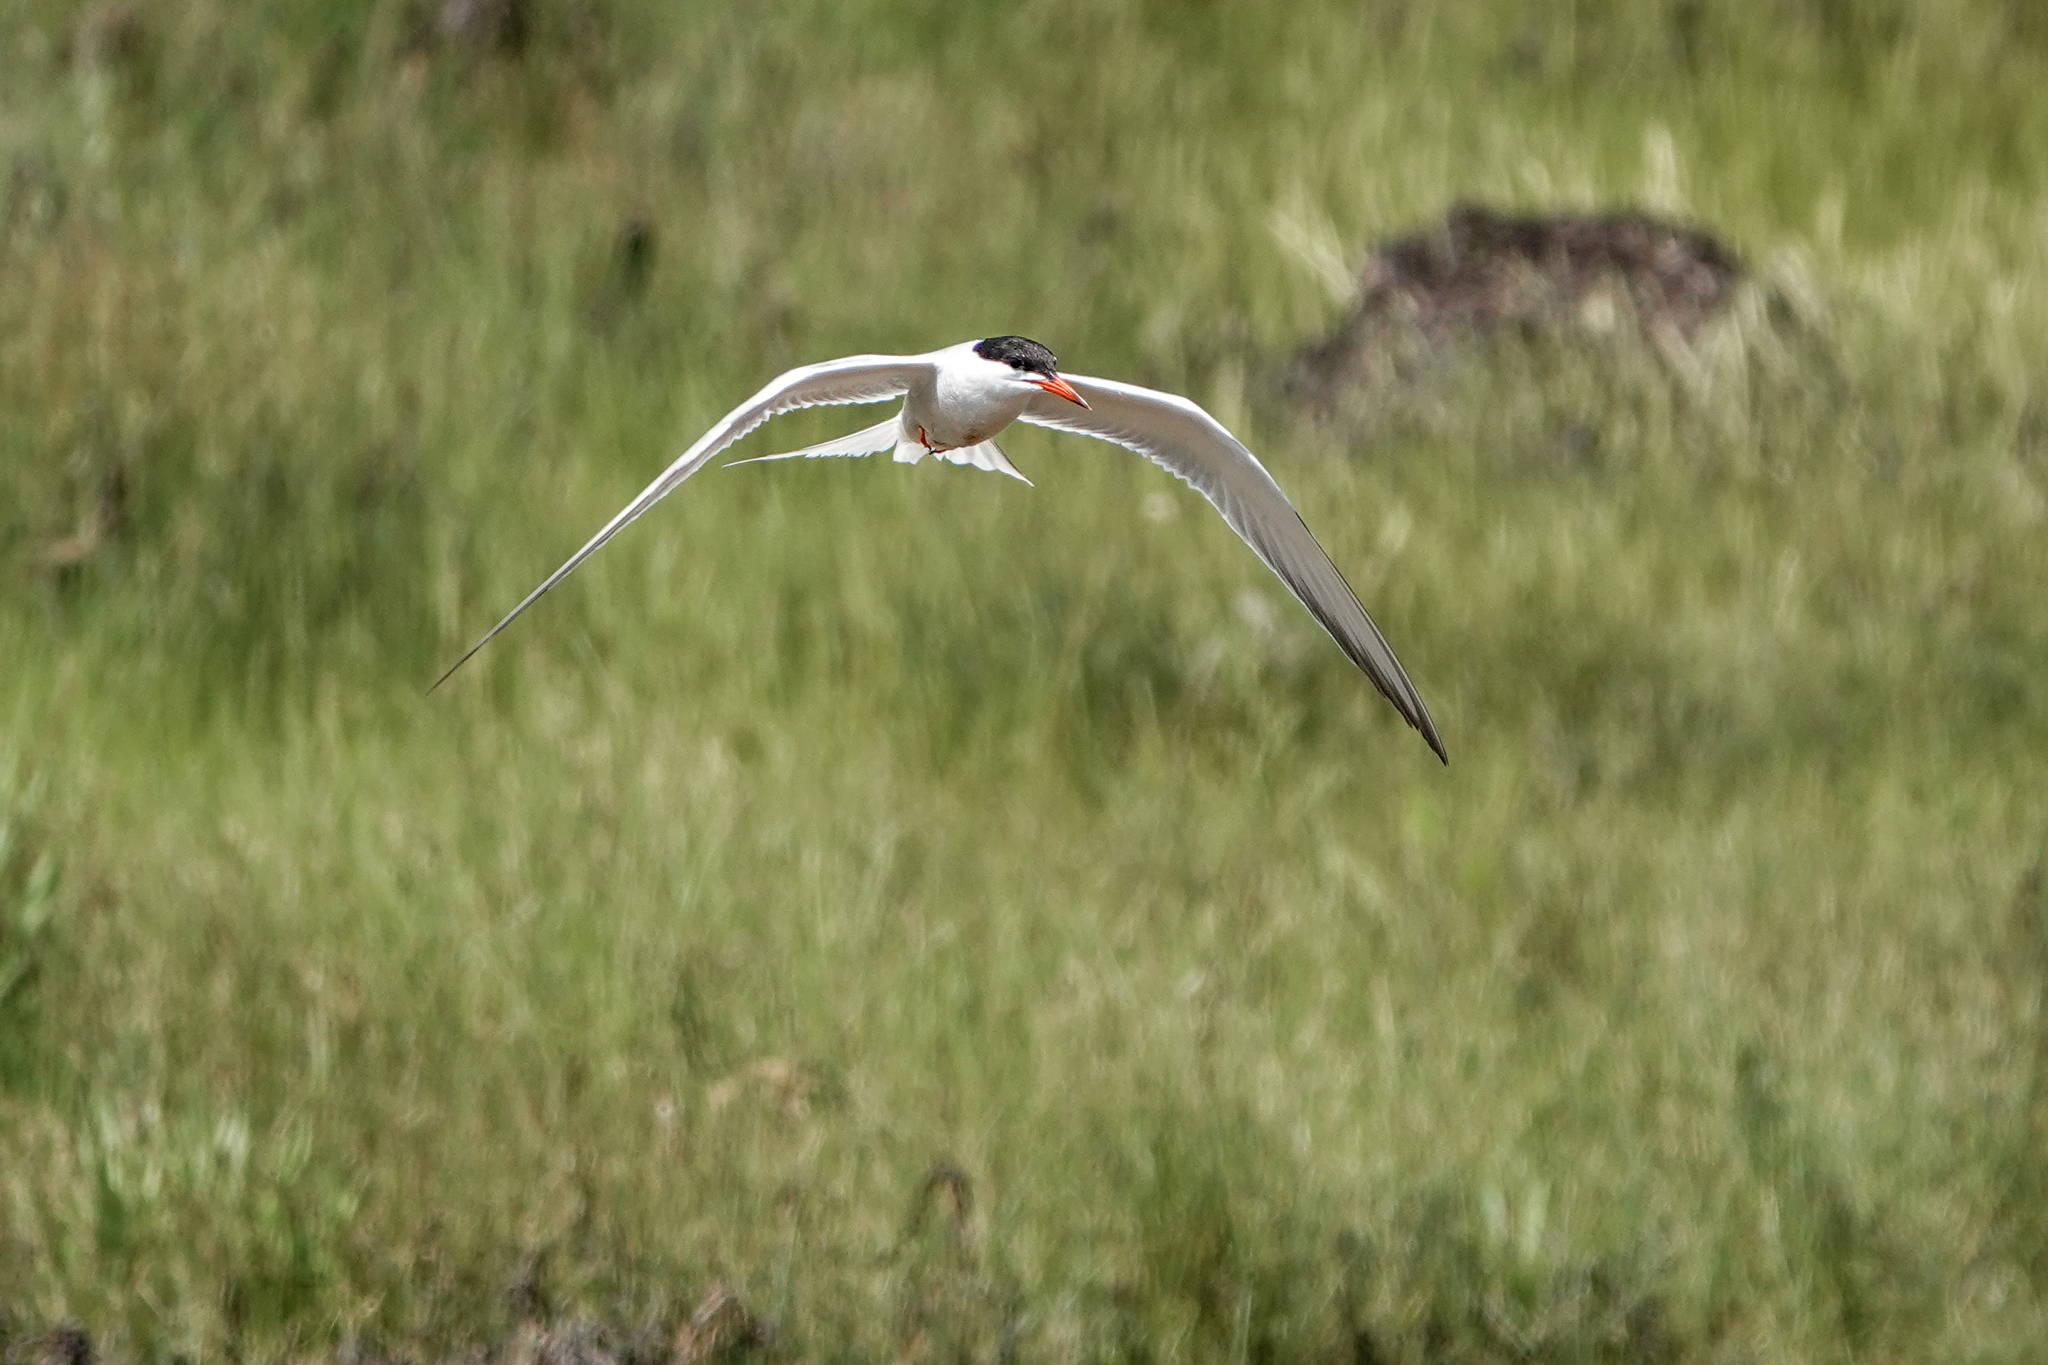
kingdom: Animalia
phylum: Chordata
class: Aves
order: Charadriiformes
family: Laridae
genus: Sterna
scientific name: Sterna hirundo
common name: Common tern
